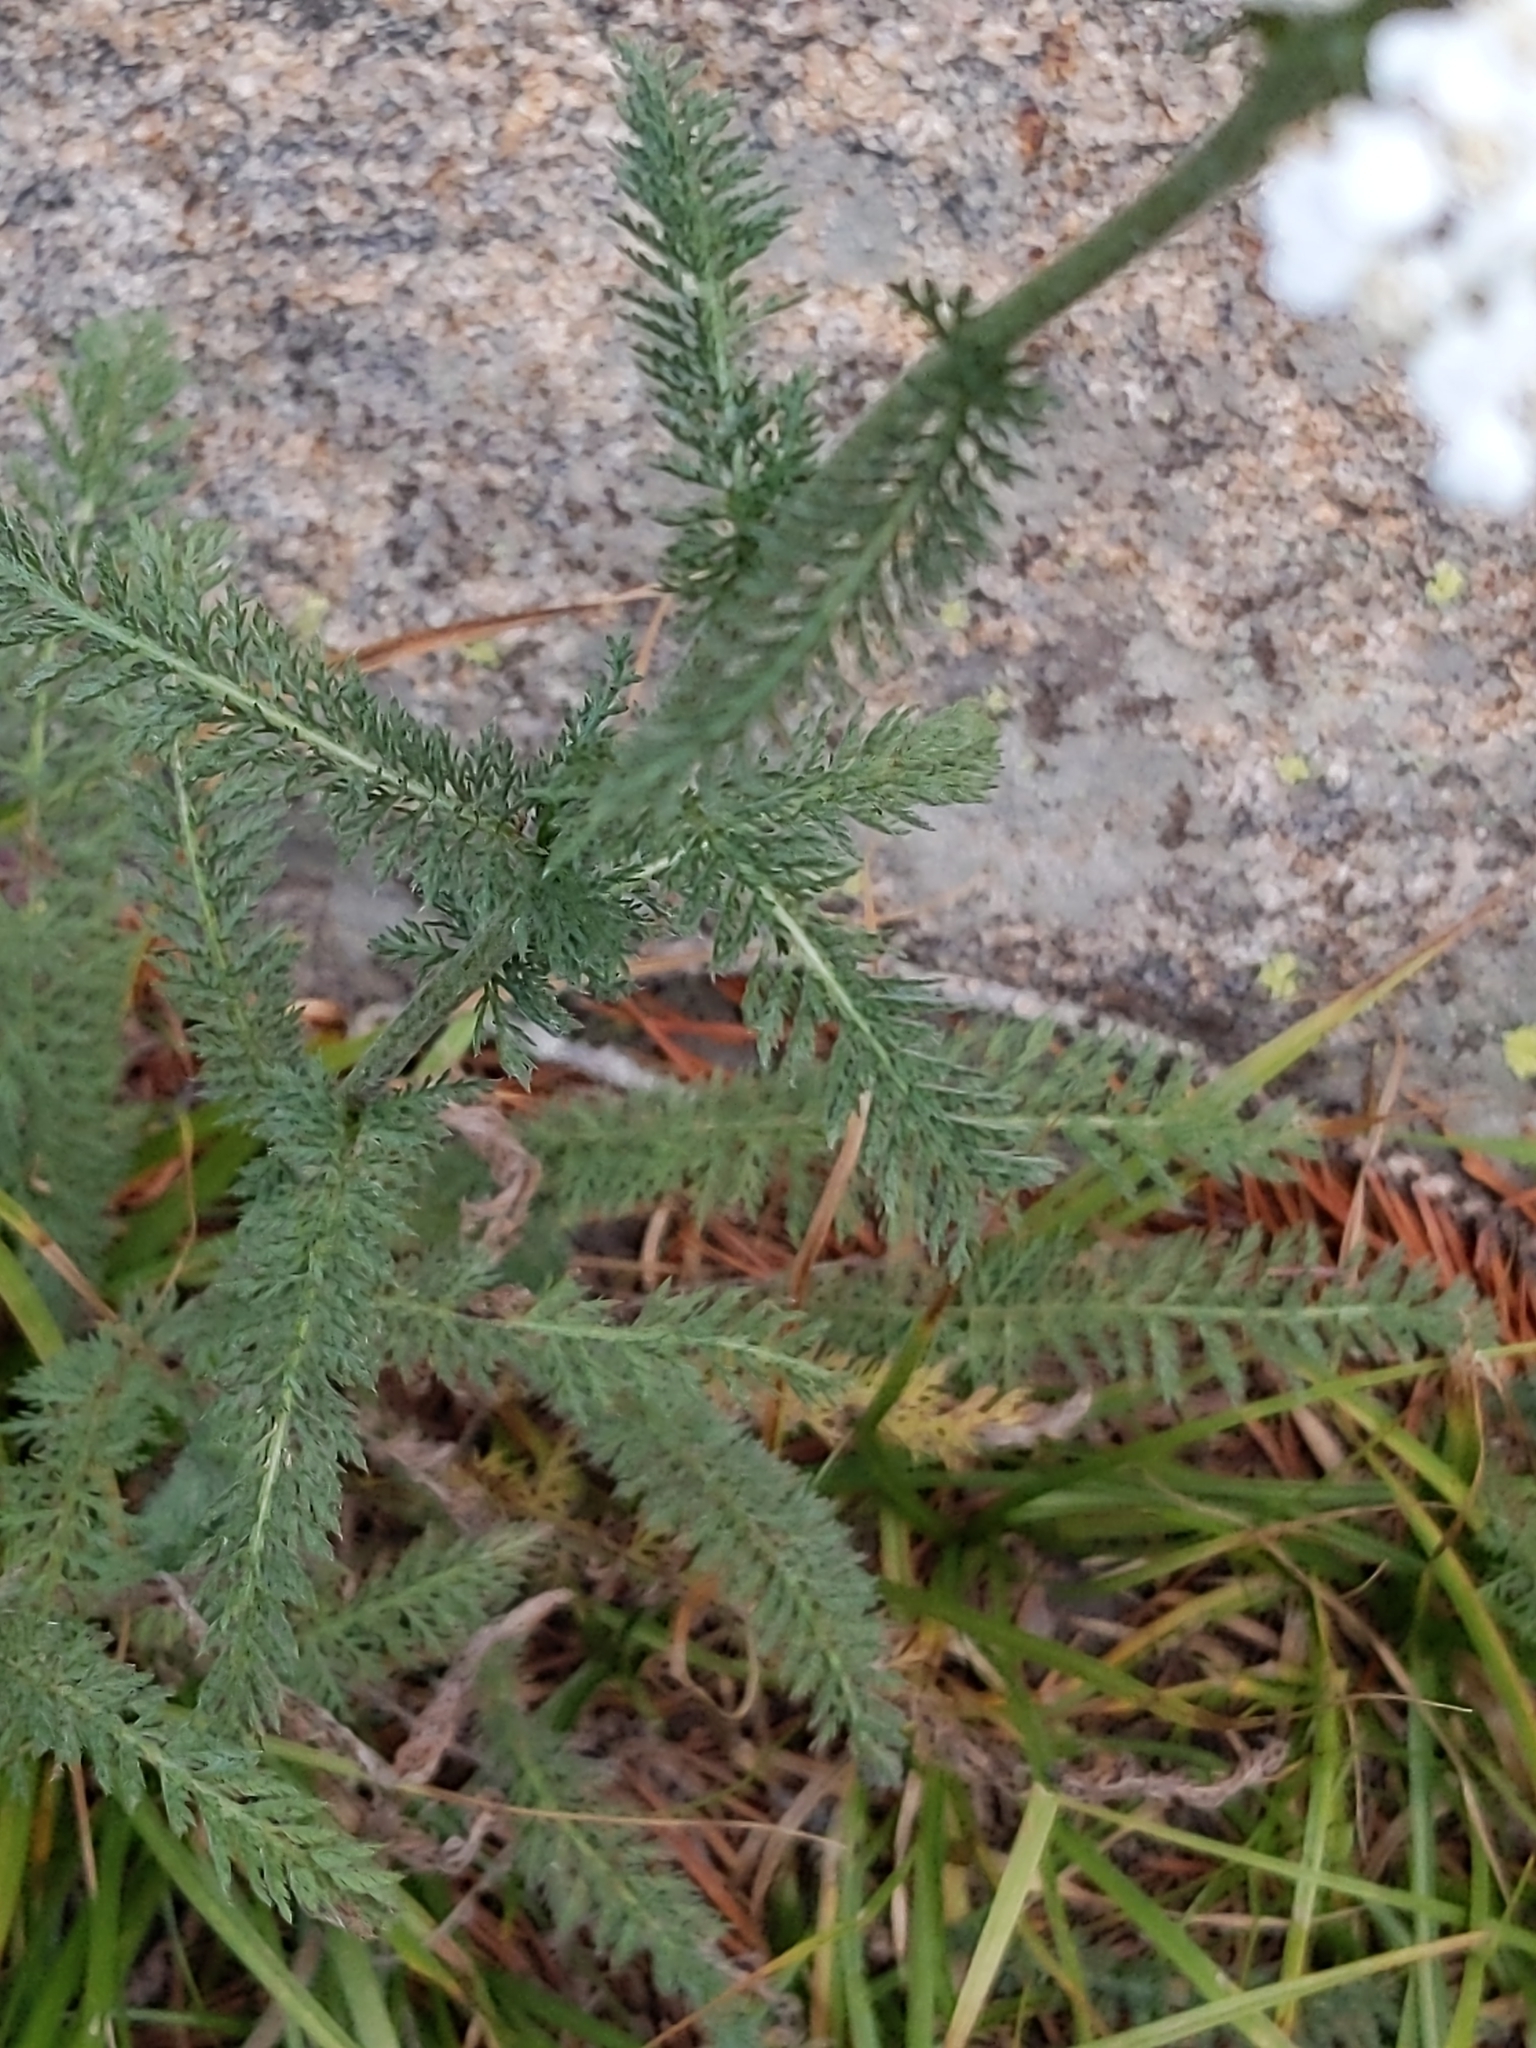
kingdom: Plantae
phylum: Tracheophyta
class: Magnoliopsida
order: Asterales
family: Asteraceae
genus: Achillea
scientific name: Achillea millefolium
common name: Yarrow
